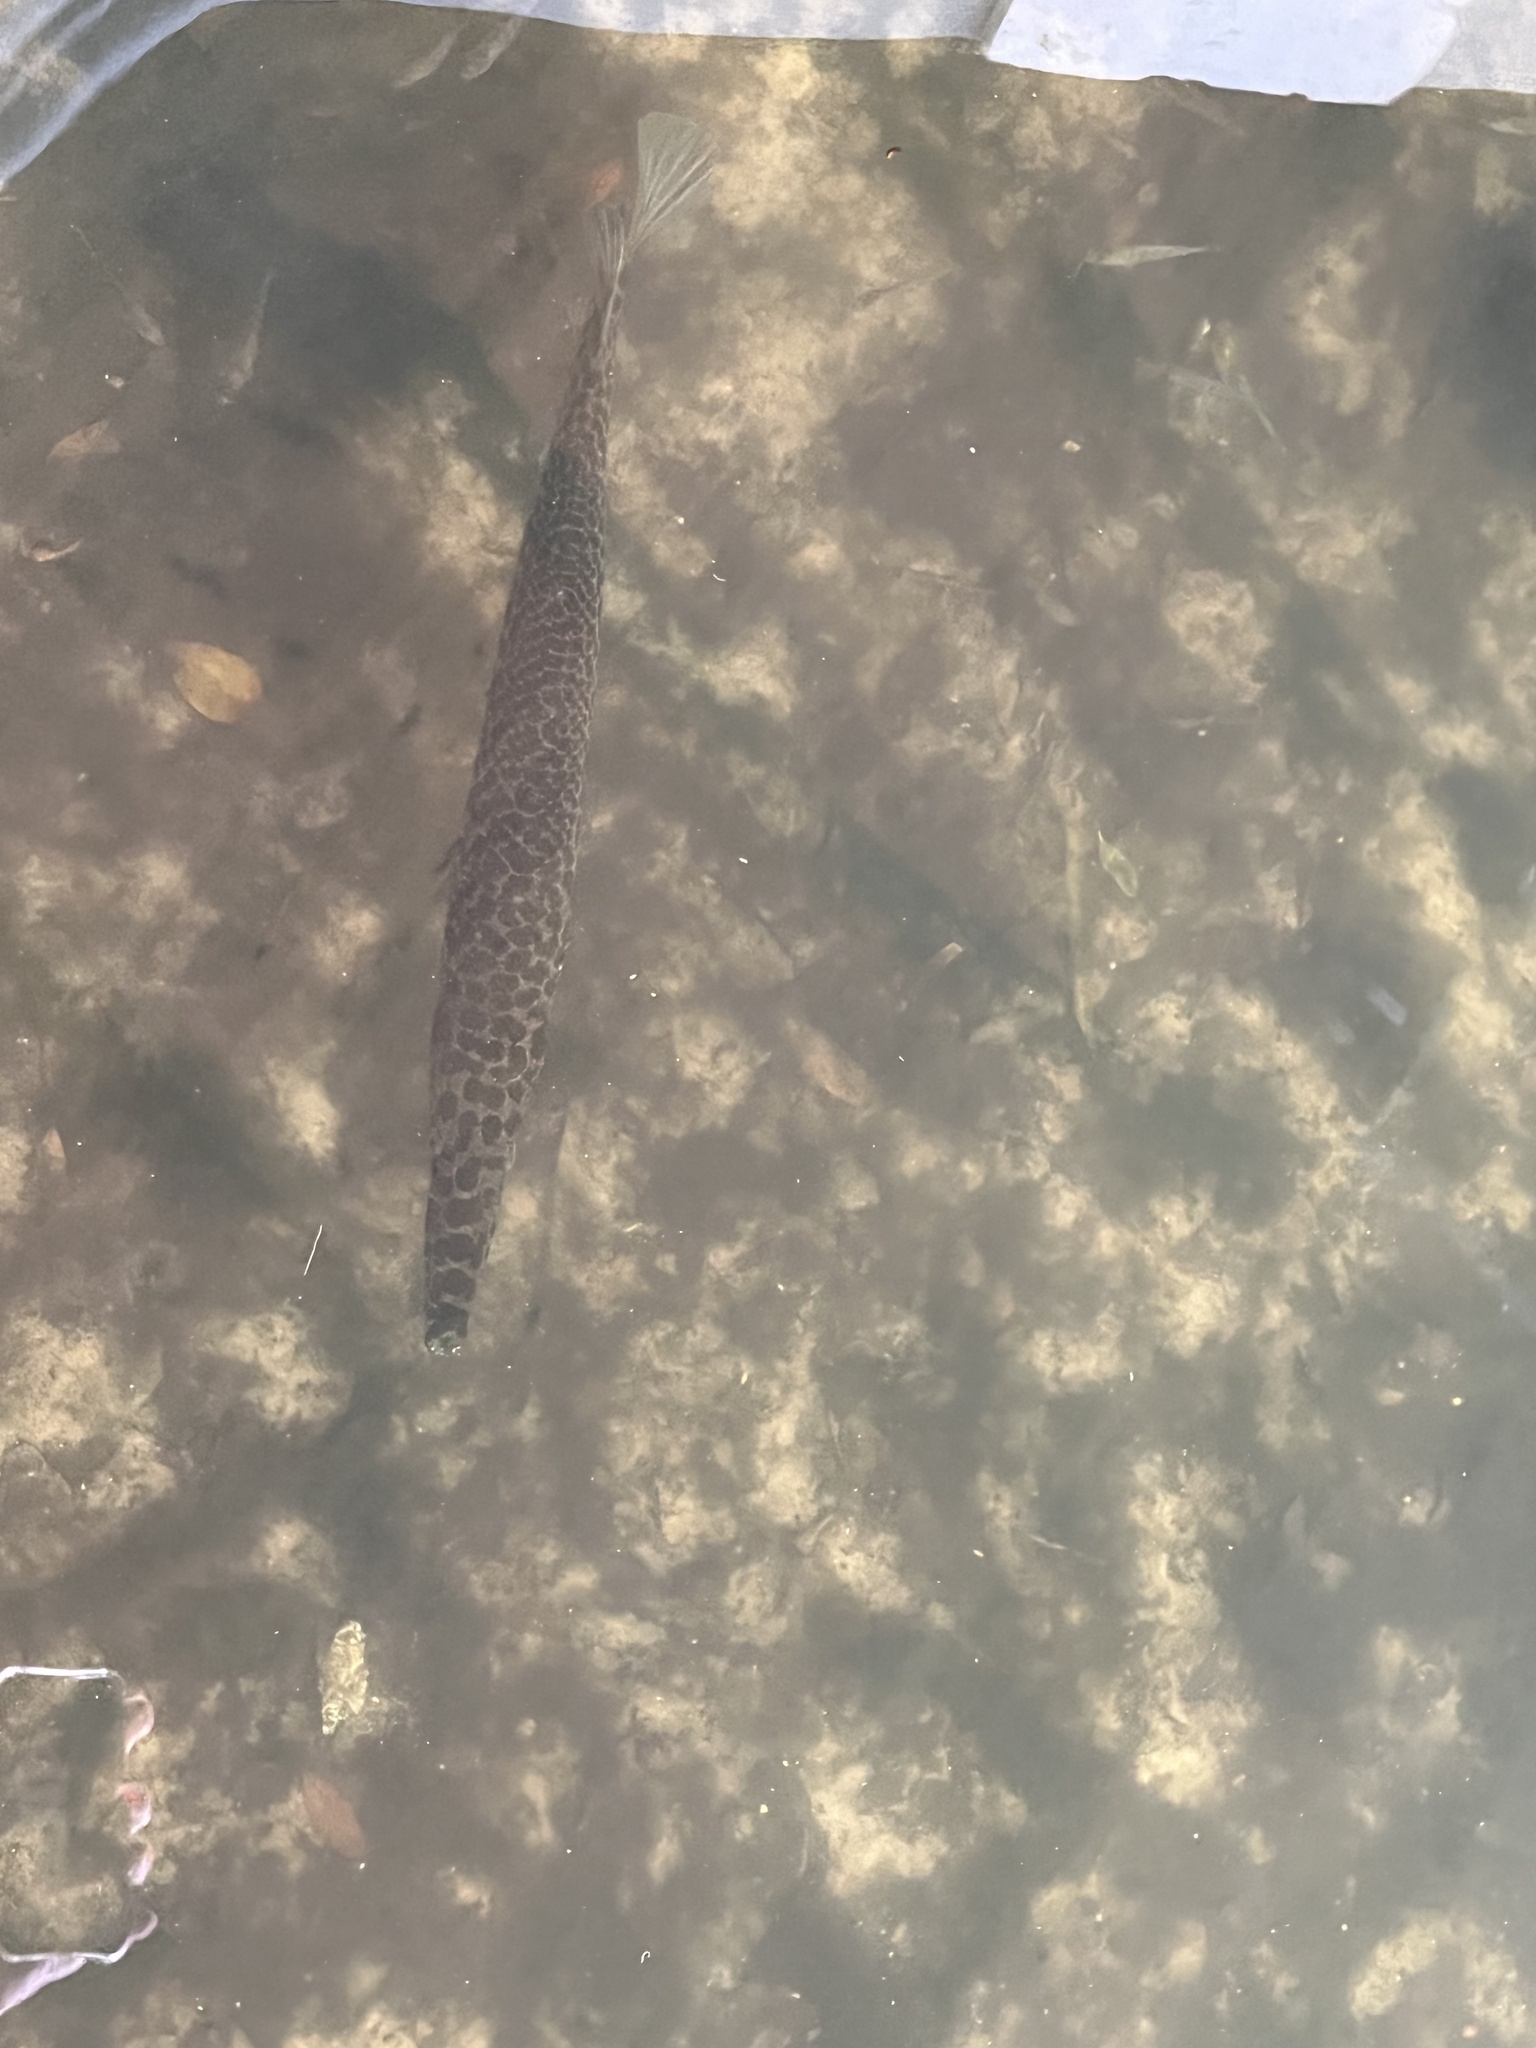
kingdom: Animalia
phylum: Chordata
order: Lepisosteiformes
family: Lepisosteidae
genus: Lepisosteus
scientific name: Lepisosteus platyrhincus
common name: Florida gar
